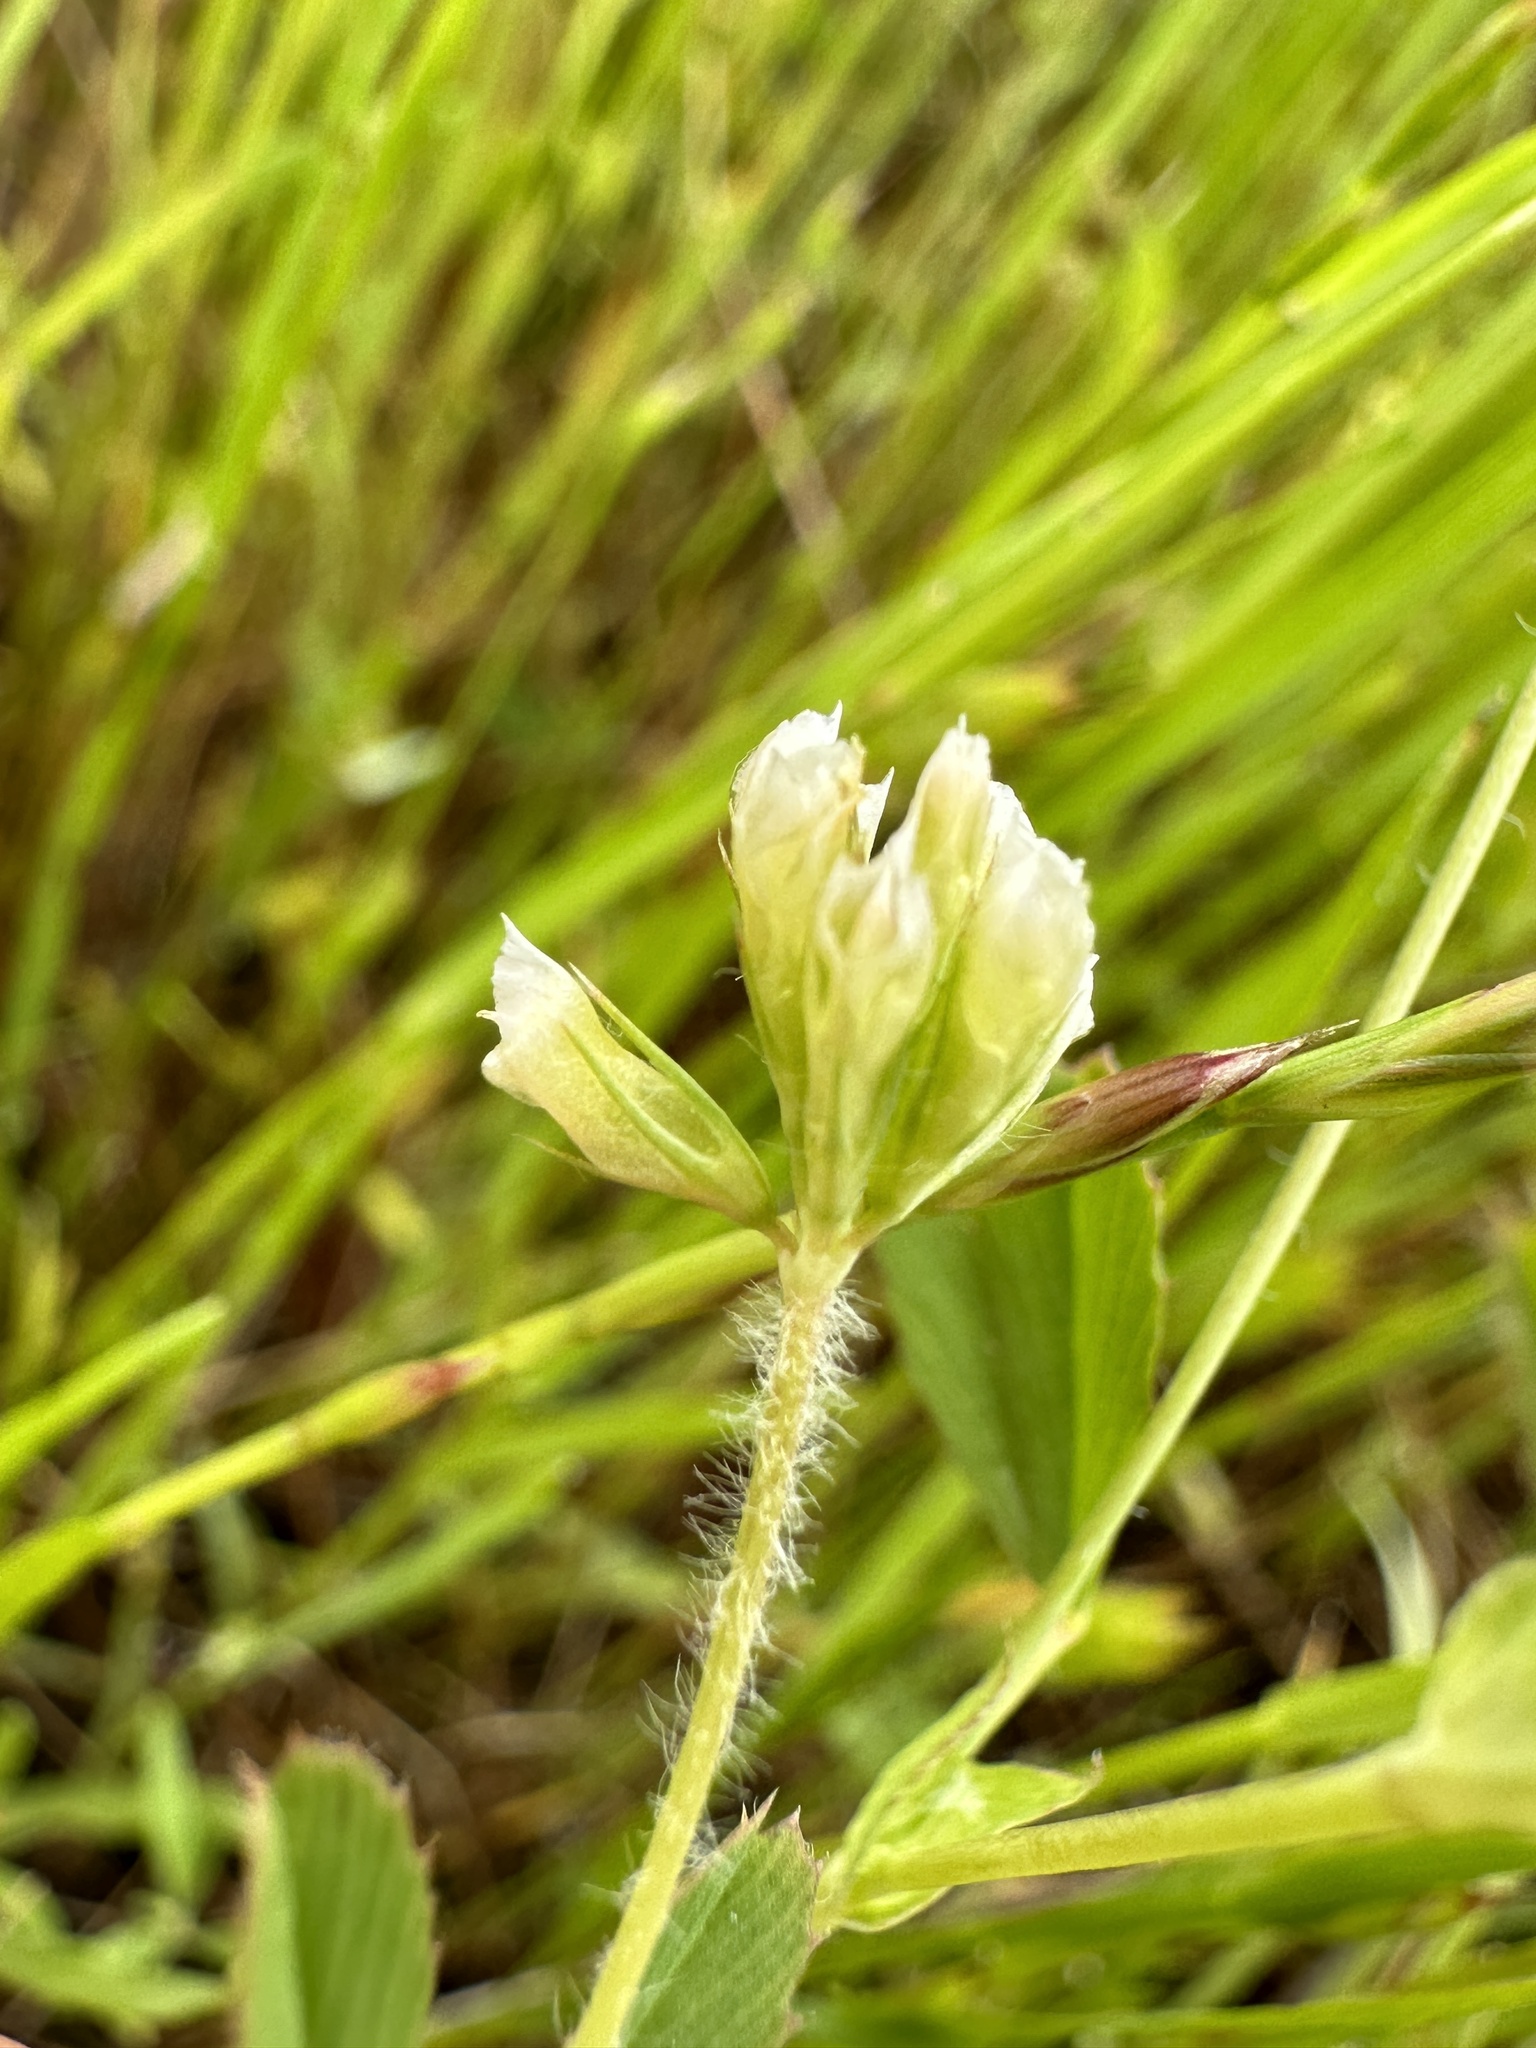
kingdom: Plantae
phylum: Tracheophyta
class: Magnoliopsida
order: Fabales
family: Fabaceae
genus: Trifolium
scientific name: Trifolium bifidum
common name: Notch-leaf clover
